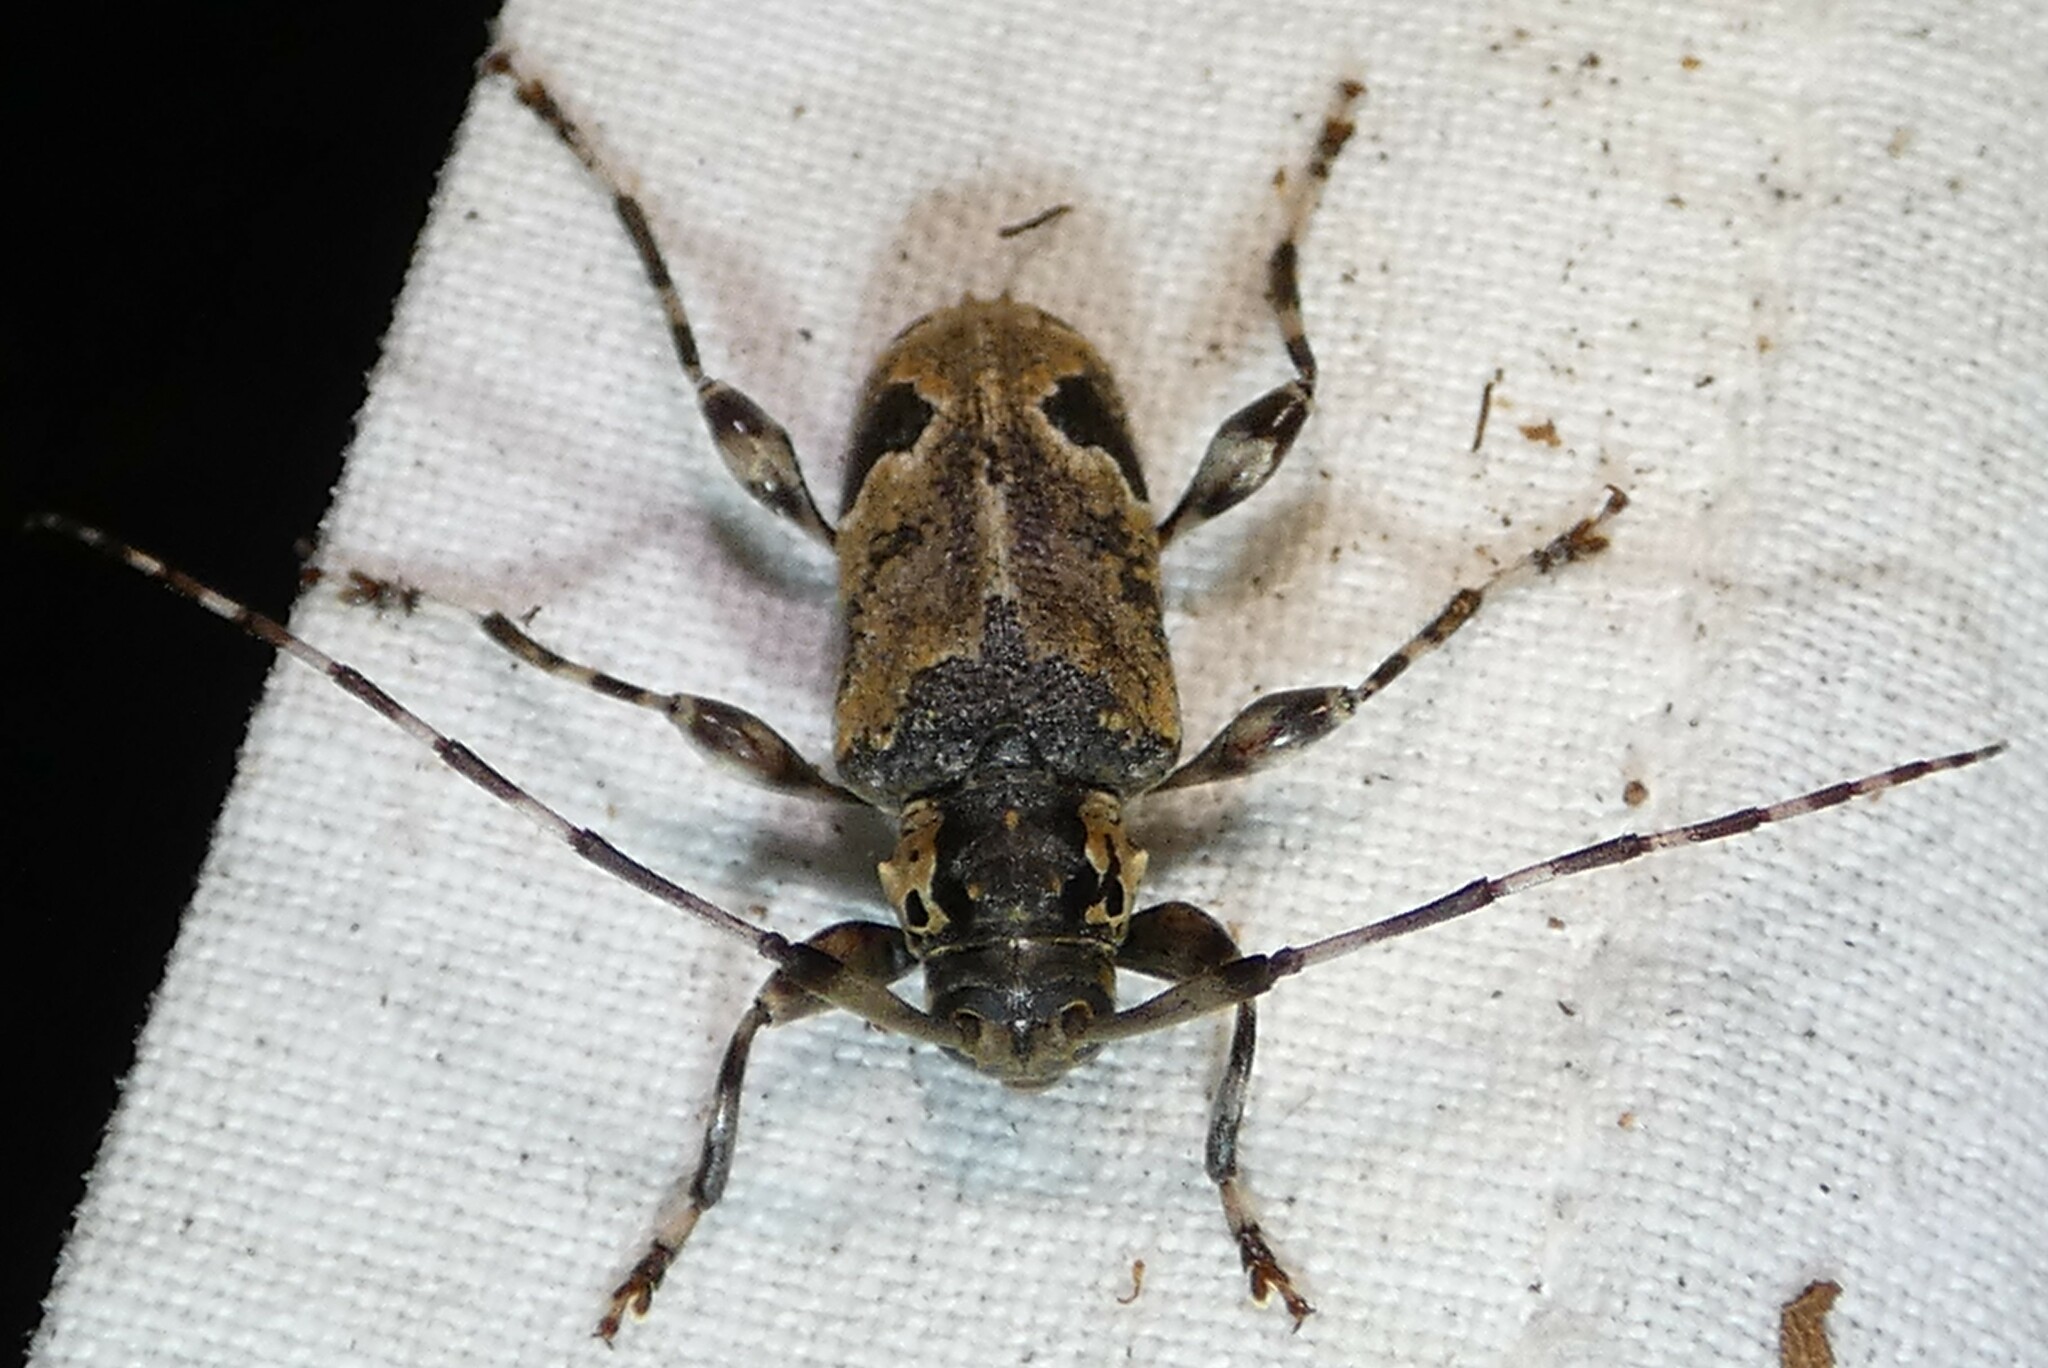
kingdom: Animalia
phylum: Arthropoda
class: Insecta
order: Coleoptera
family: Cerambycidae
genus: Graphisurus
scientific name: Graphisurus triangulifer
